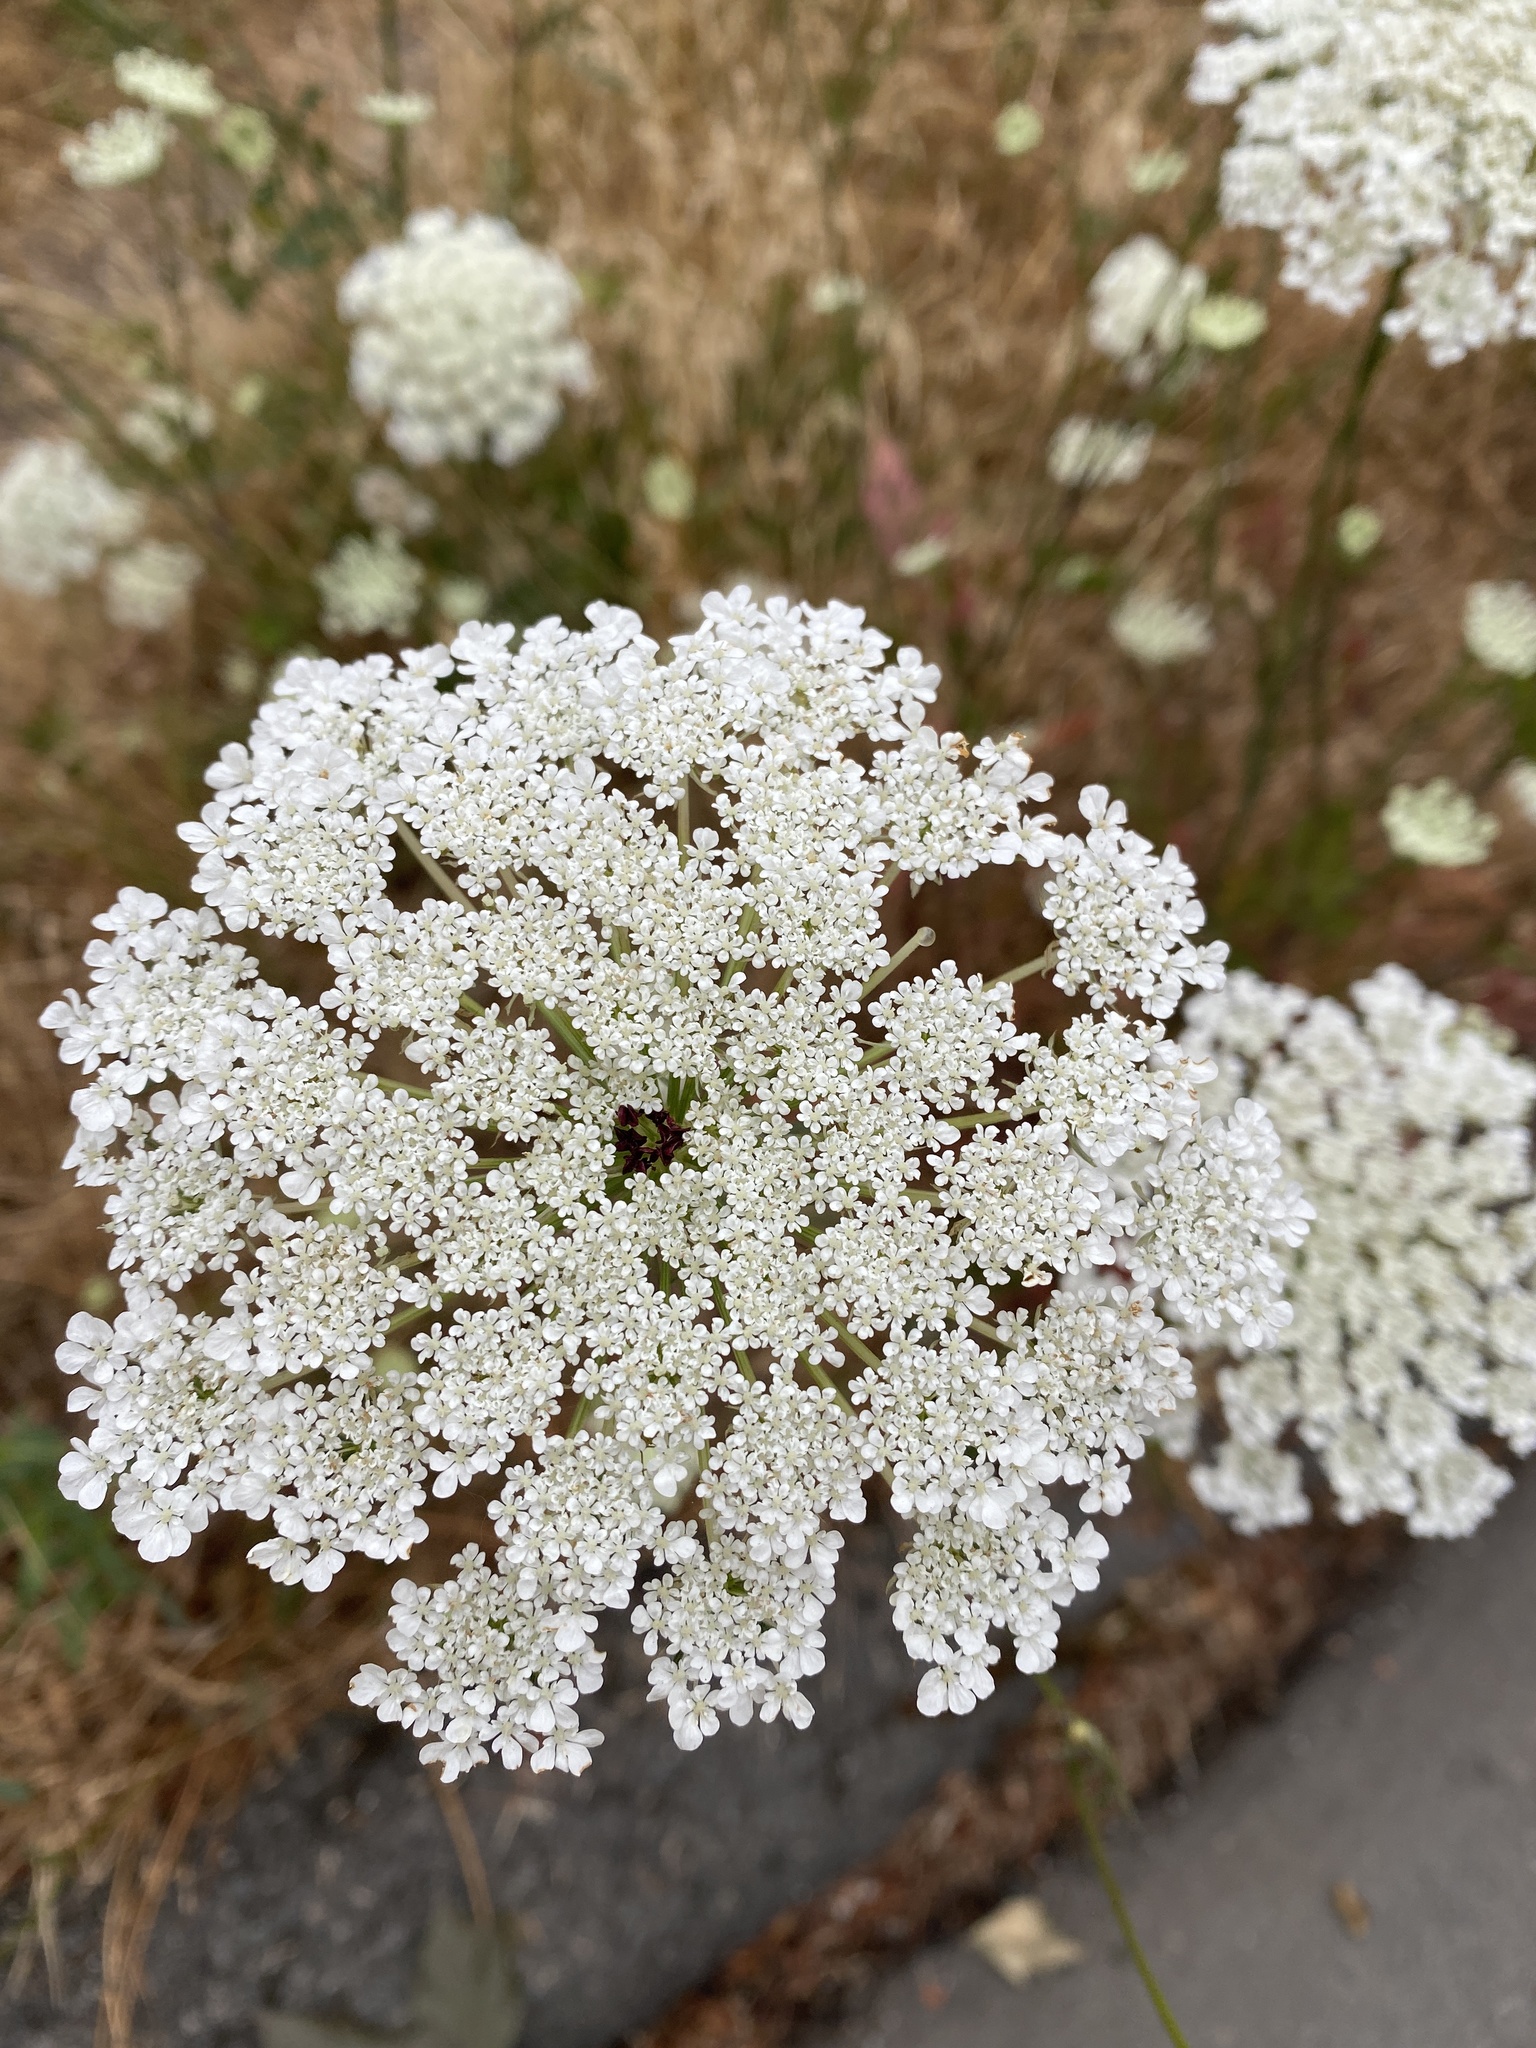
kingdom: Plantae
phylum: Tracheophyta
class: Magnoliopsida
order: Apiales
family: Apiaceae
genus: Daucus
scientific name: Daucus carota
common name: Wild carrot
